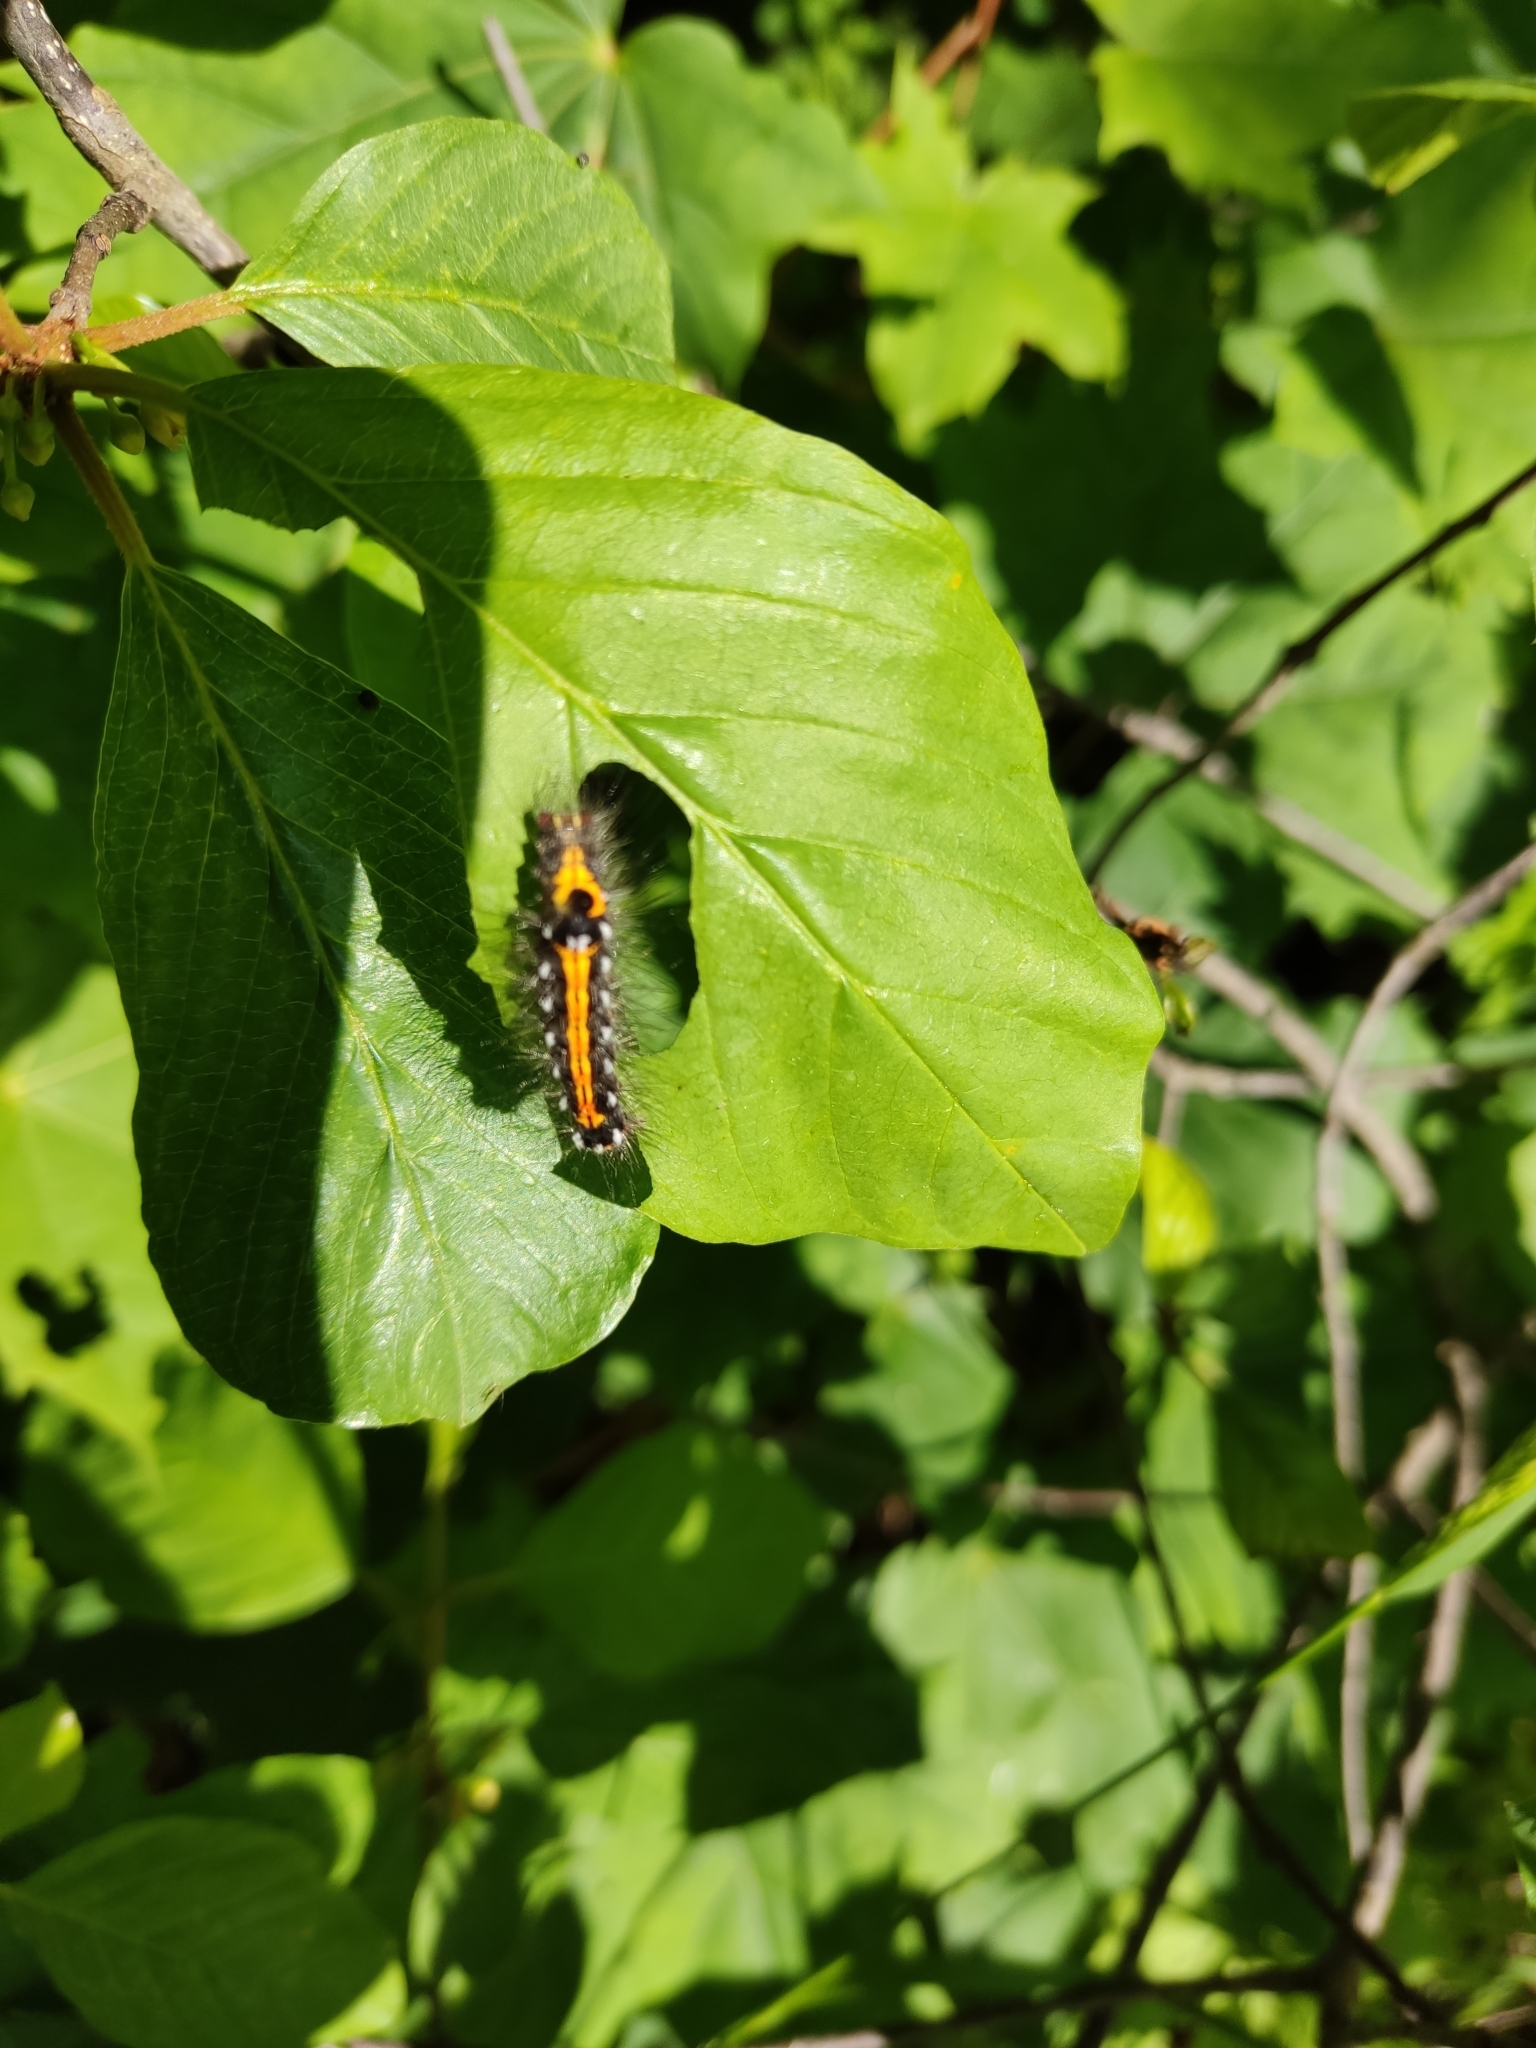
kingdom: Animalia
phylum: Arthropoda
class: Insecta
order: Lepidoptera
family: Erebidae
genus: Sphrageidus
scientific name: Sphrageidus similis
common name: Yellow-tail
